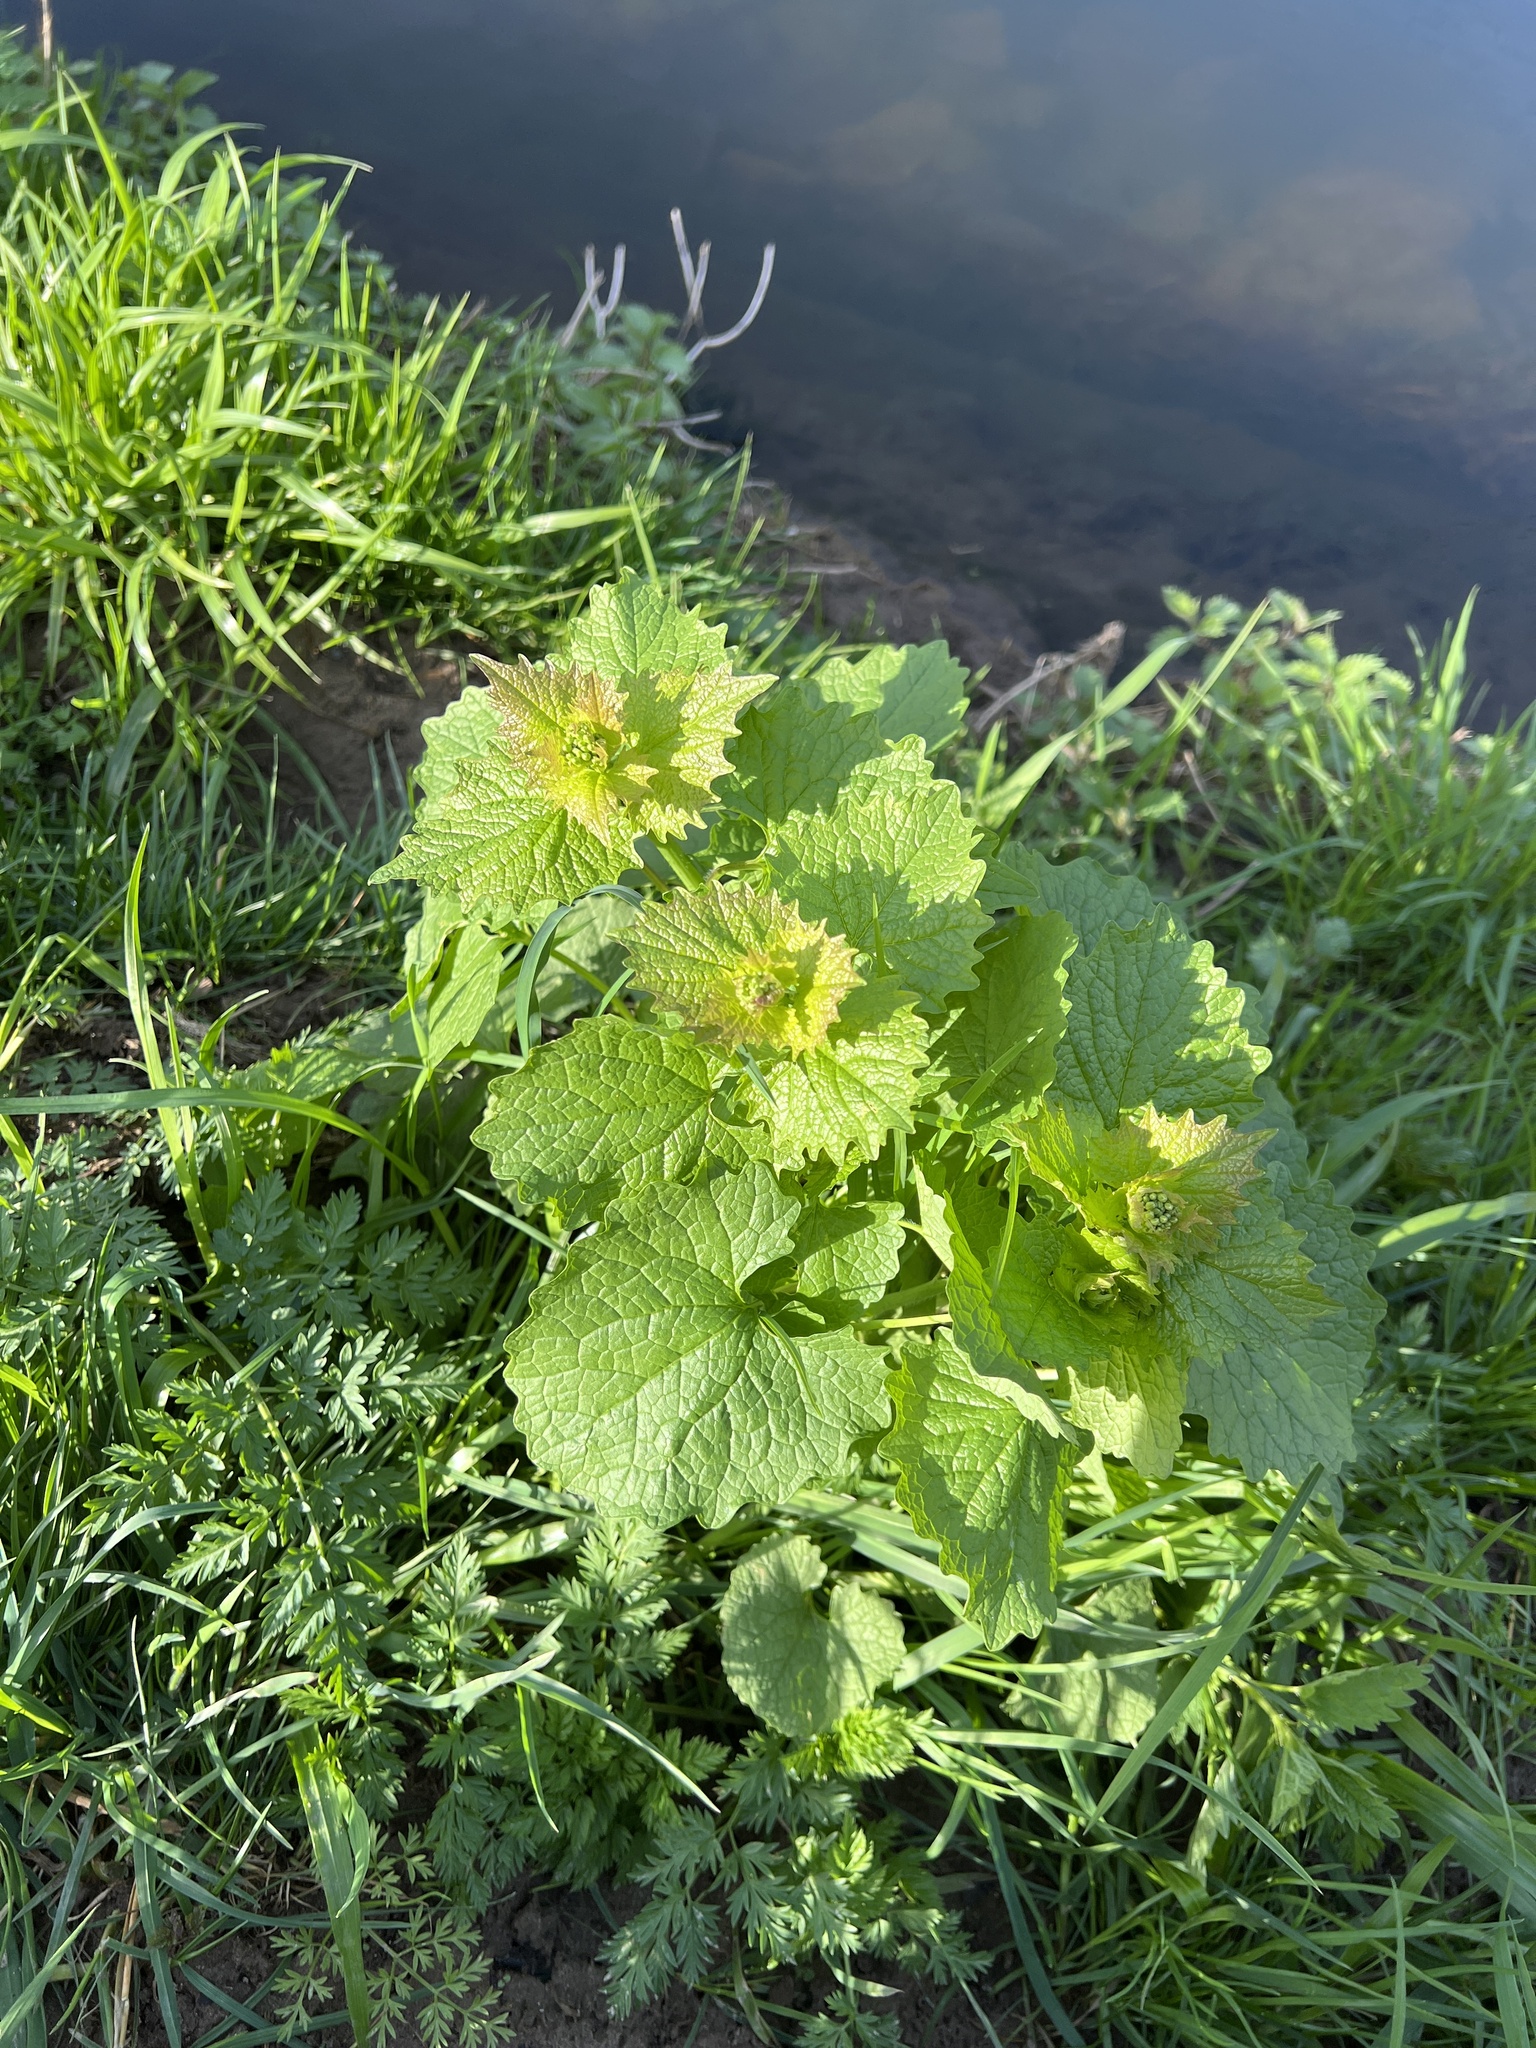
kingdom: Plantae
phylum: Tracheophyta
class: Magnoliopsida
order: Brassicales
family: Brassicaceae
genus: Alliaria
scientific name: Alliaria petiolata
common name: Garlic mustard
